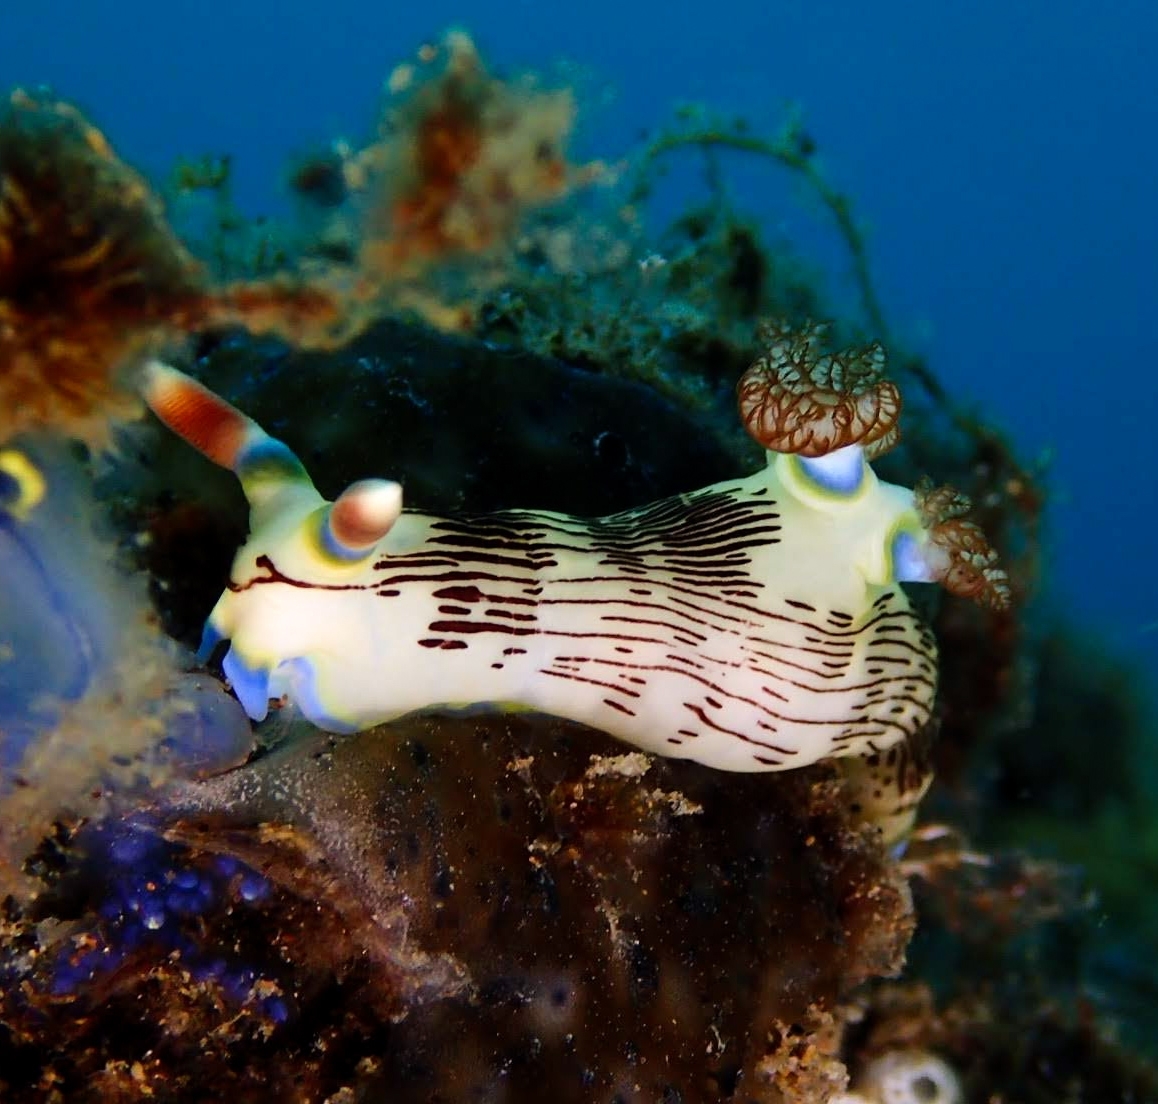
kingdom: Animalia
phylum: Mollusca
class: Gastropoda
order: Nudibranchia
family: Polyceridae
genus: Nembrotha
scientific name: Nembrotha lineolata
